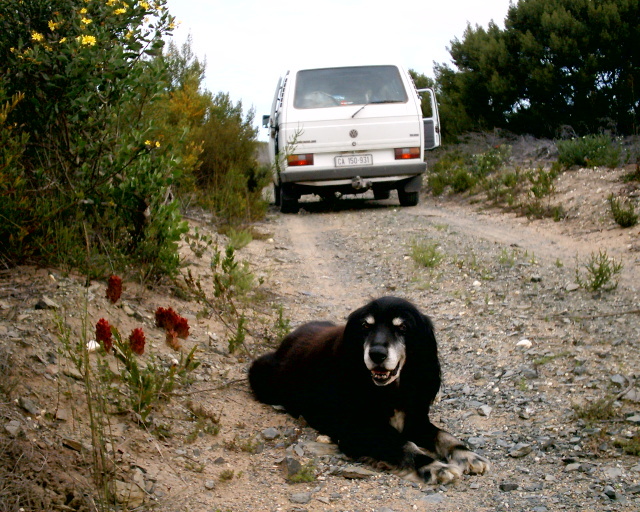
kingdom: Plantae
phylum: Tracheophyta
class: Magnoliopsida
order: Lamiales
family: Orobanchaceae
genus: Hyobanche
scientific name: Hyobanche sanguinea
